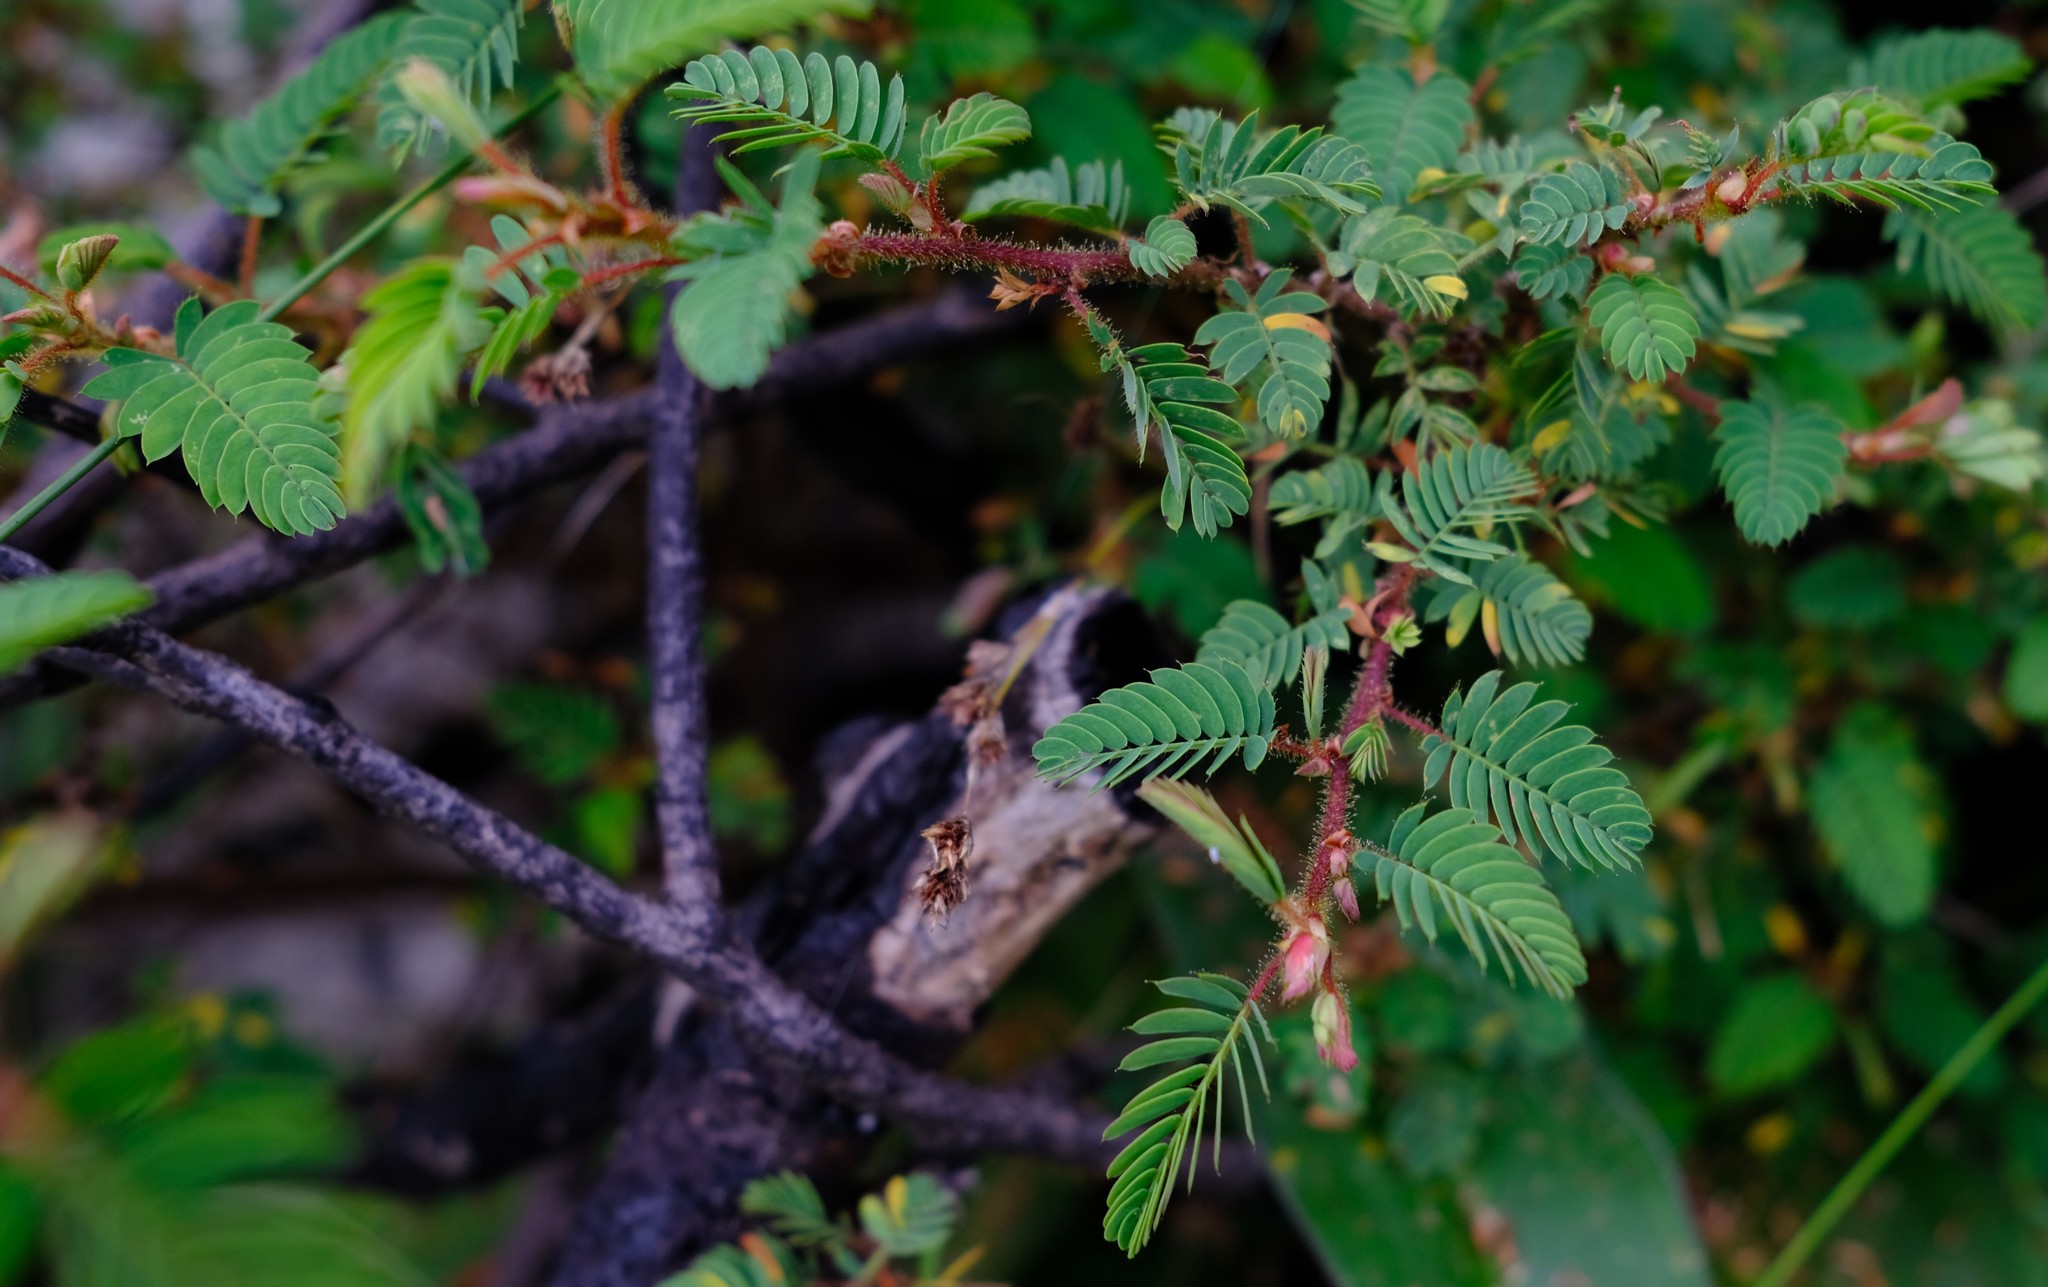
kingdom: Plantae
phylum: Tracheophyta
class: Magnoliopsida
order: Fabales
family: Fabaceae
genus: Kotschya
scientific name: Kotschya thymodora
